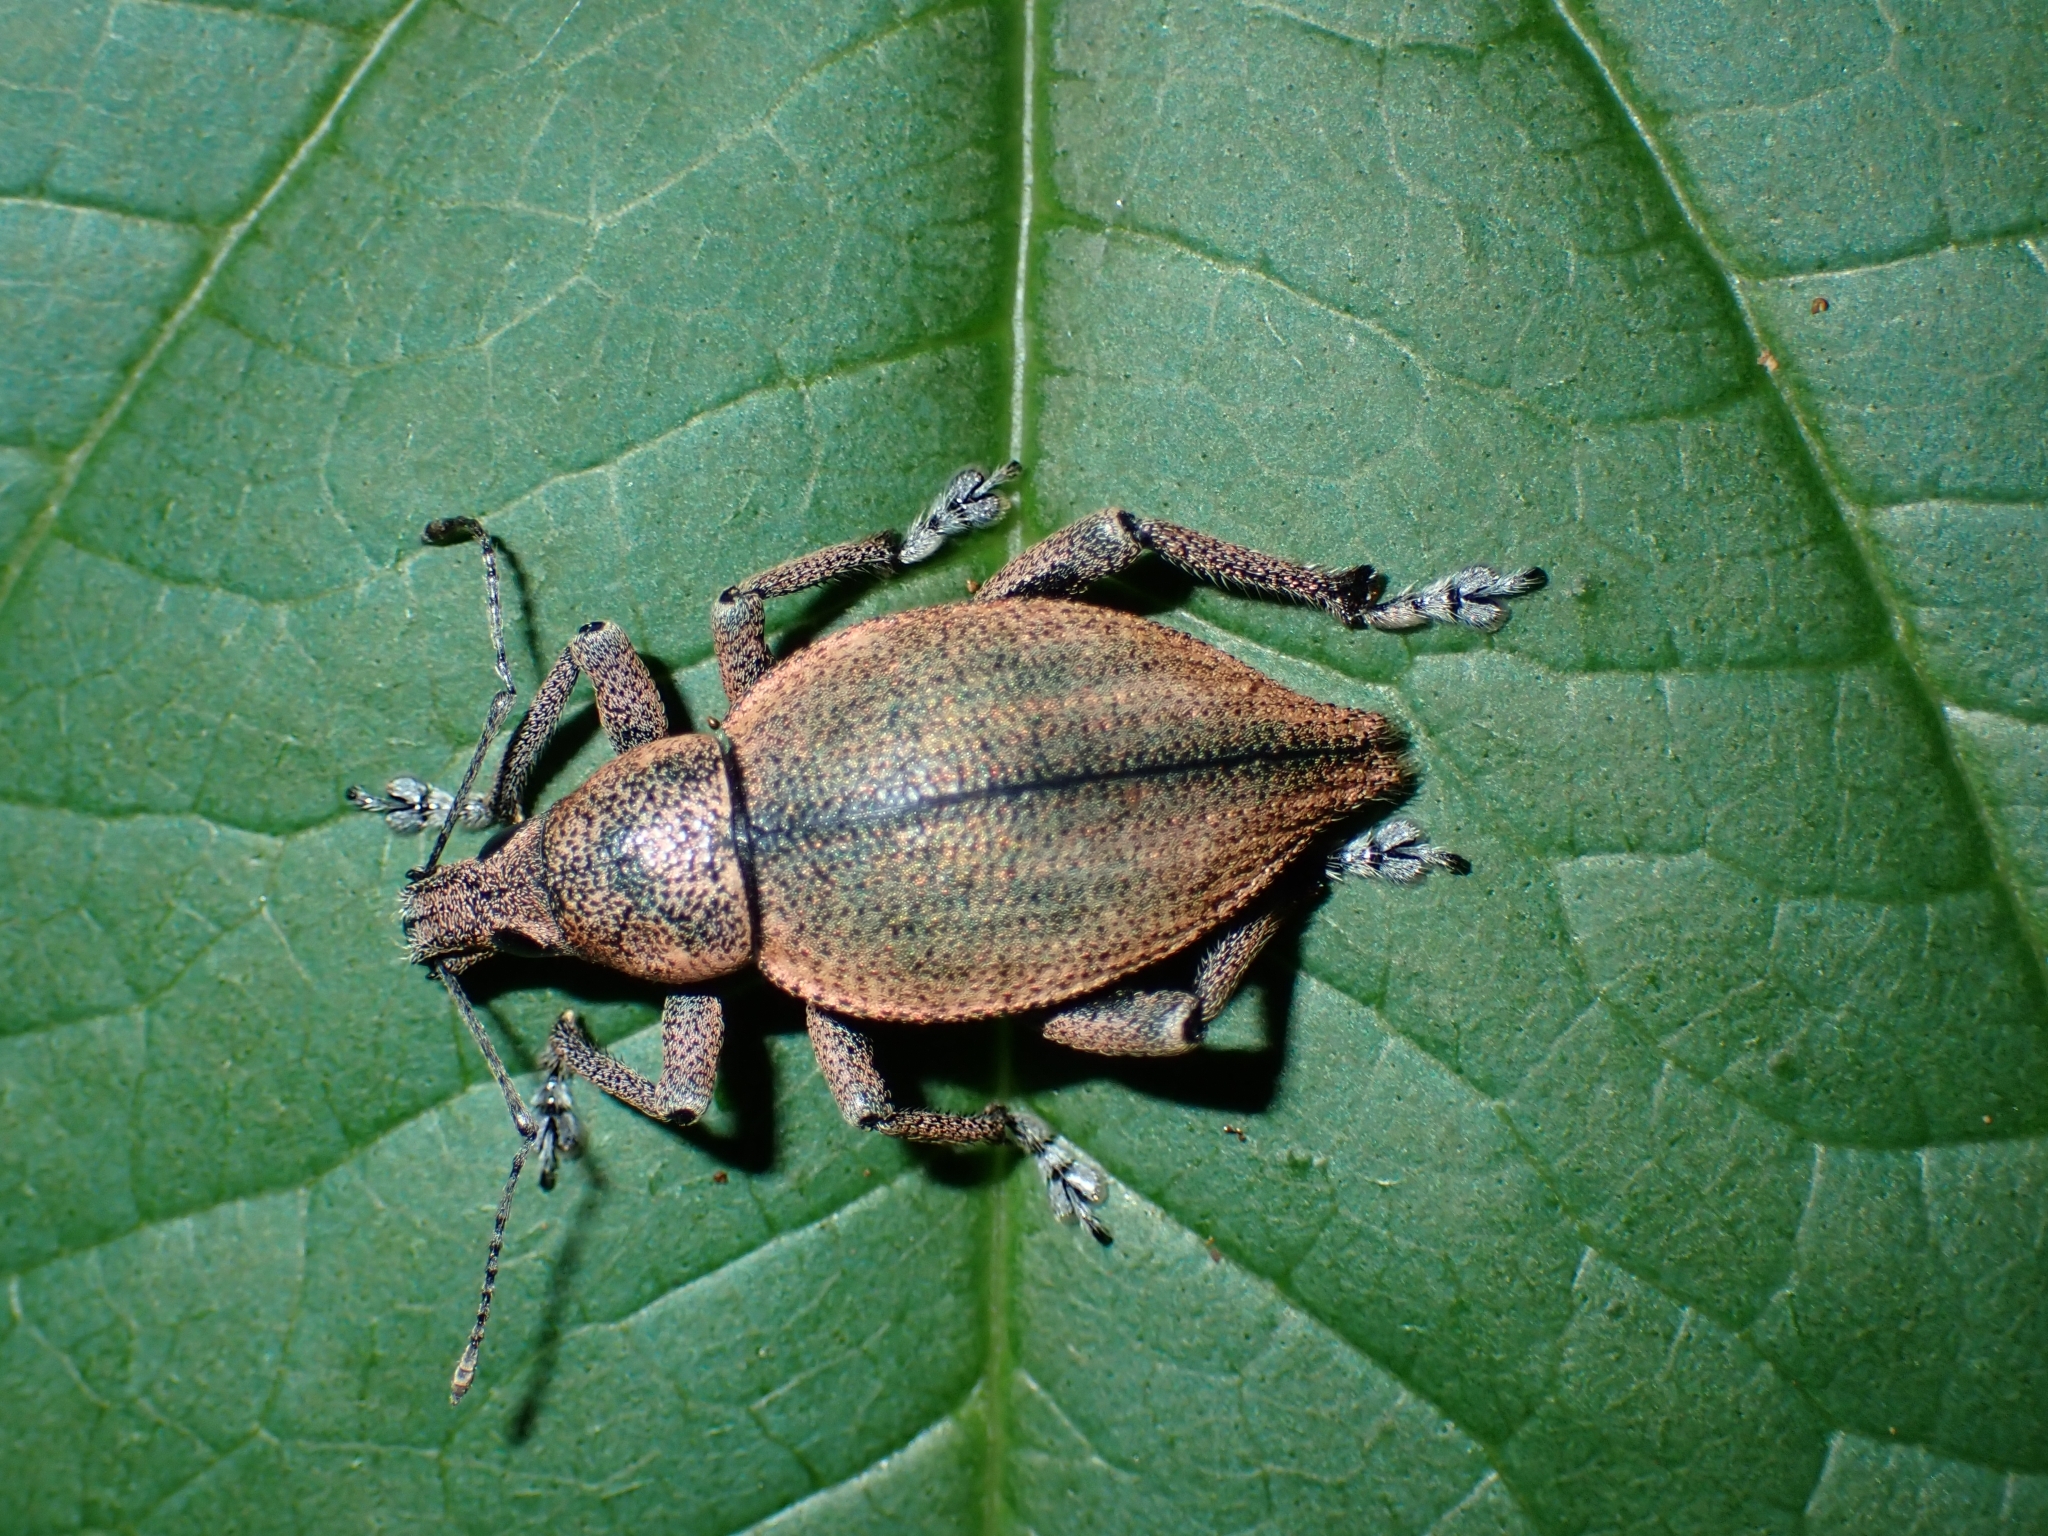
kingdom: Animalia
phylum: Arthropoda
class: Insecta
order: Coleoptera
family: Curculionidae
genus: Elytrurus
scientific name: Elytrurus marginatus
